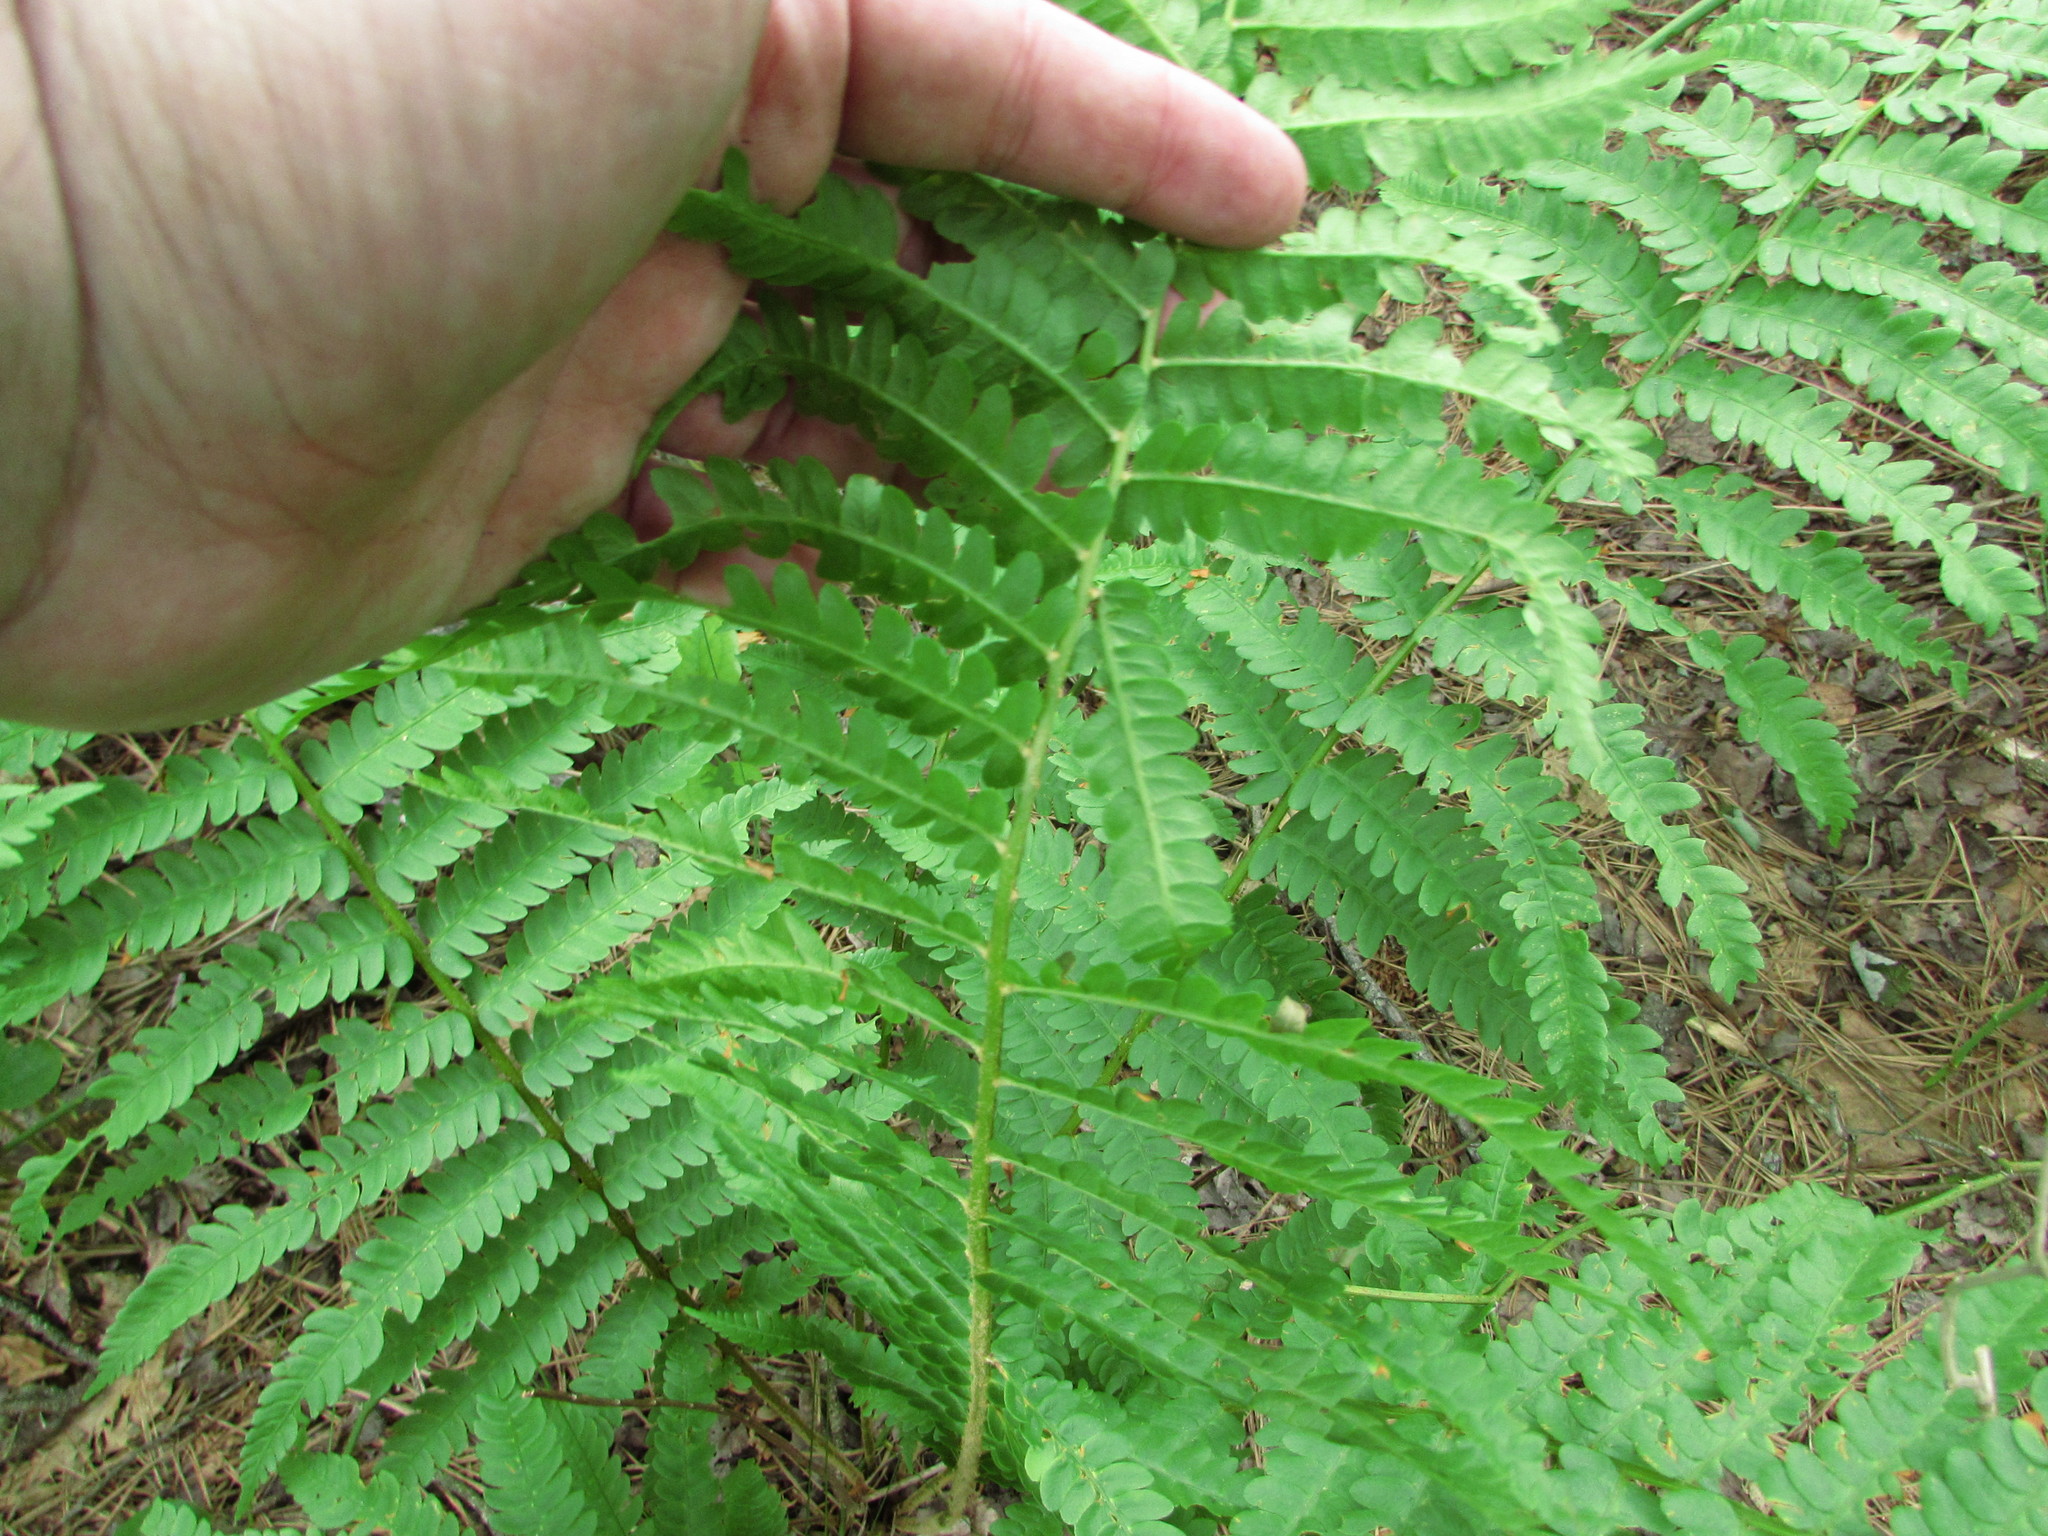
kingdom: Plantae
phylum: Tracheophyta
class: Polypodiopsida
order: Osmundales
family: Osmundaceae
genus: Osmundastrum
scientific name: Osmundastrum cinnamomeum
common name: Cinnamon fern
